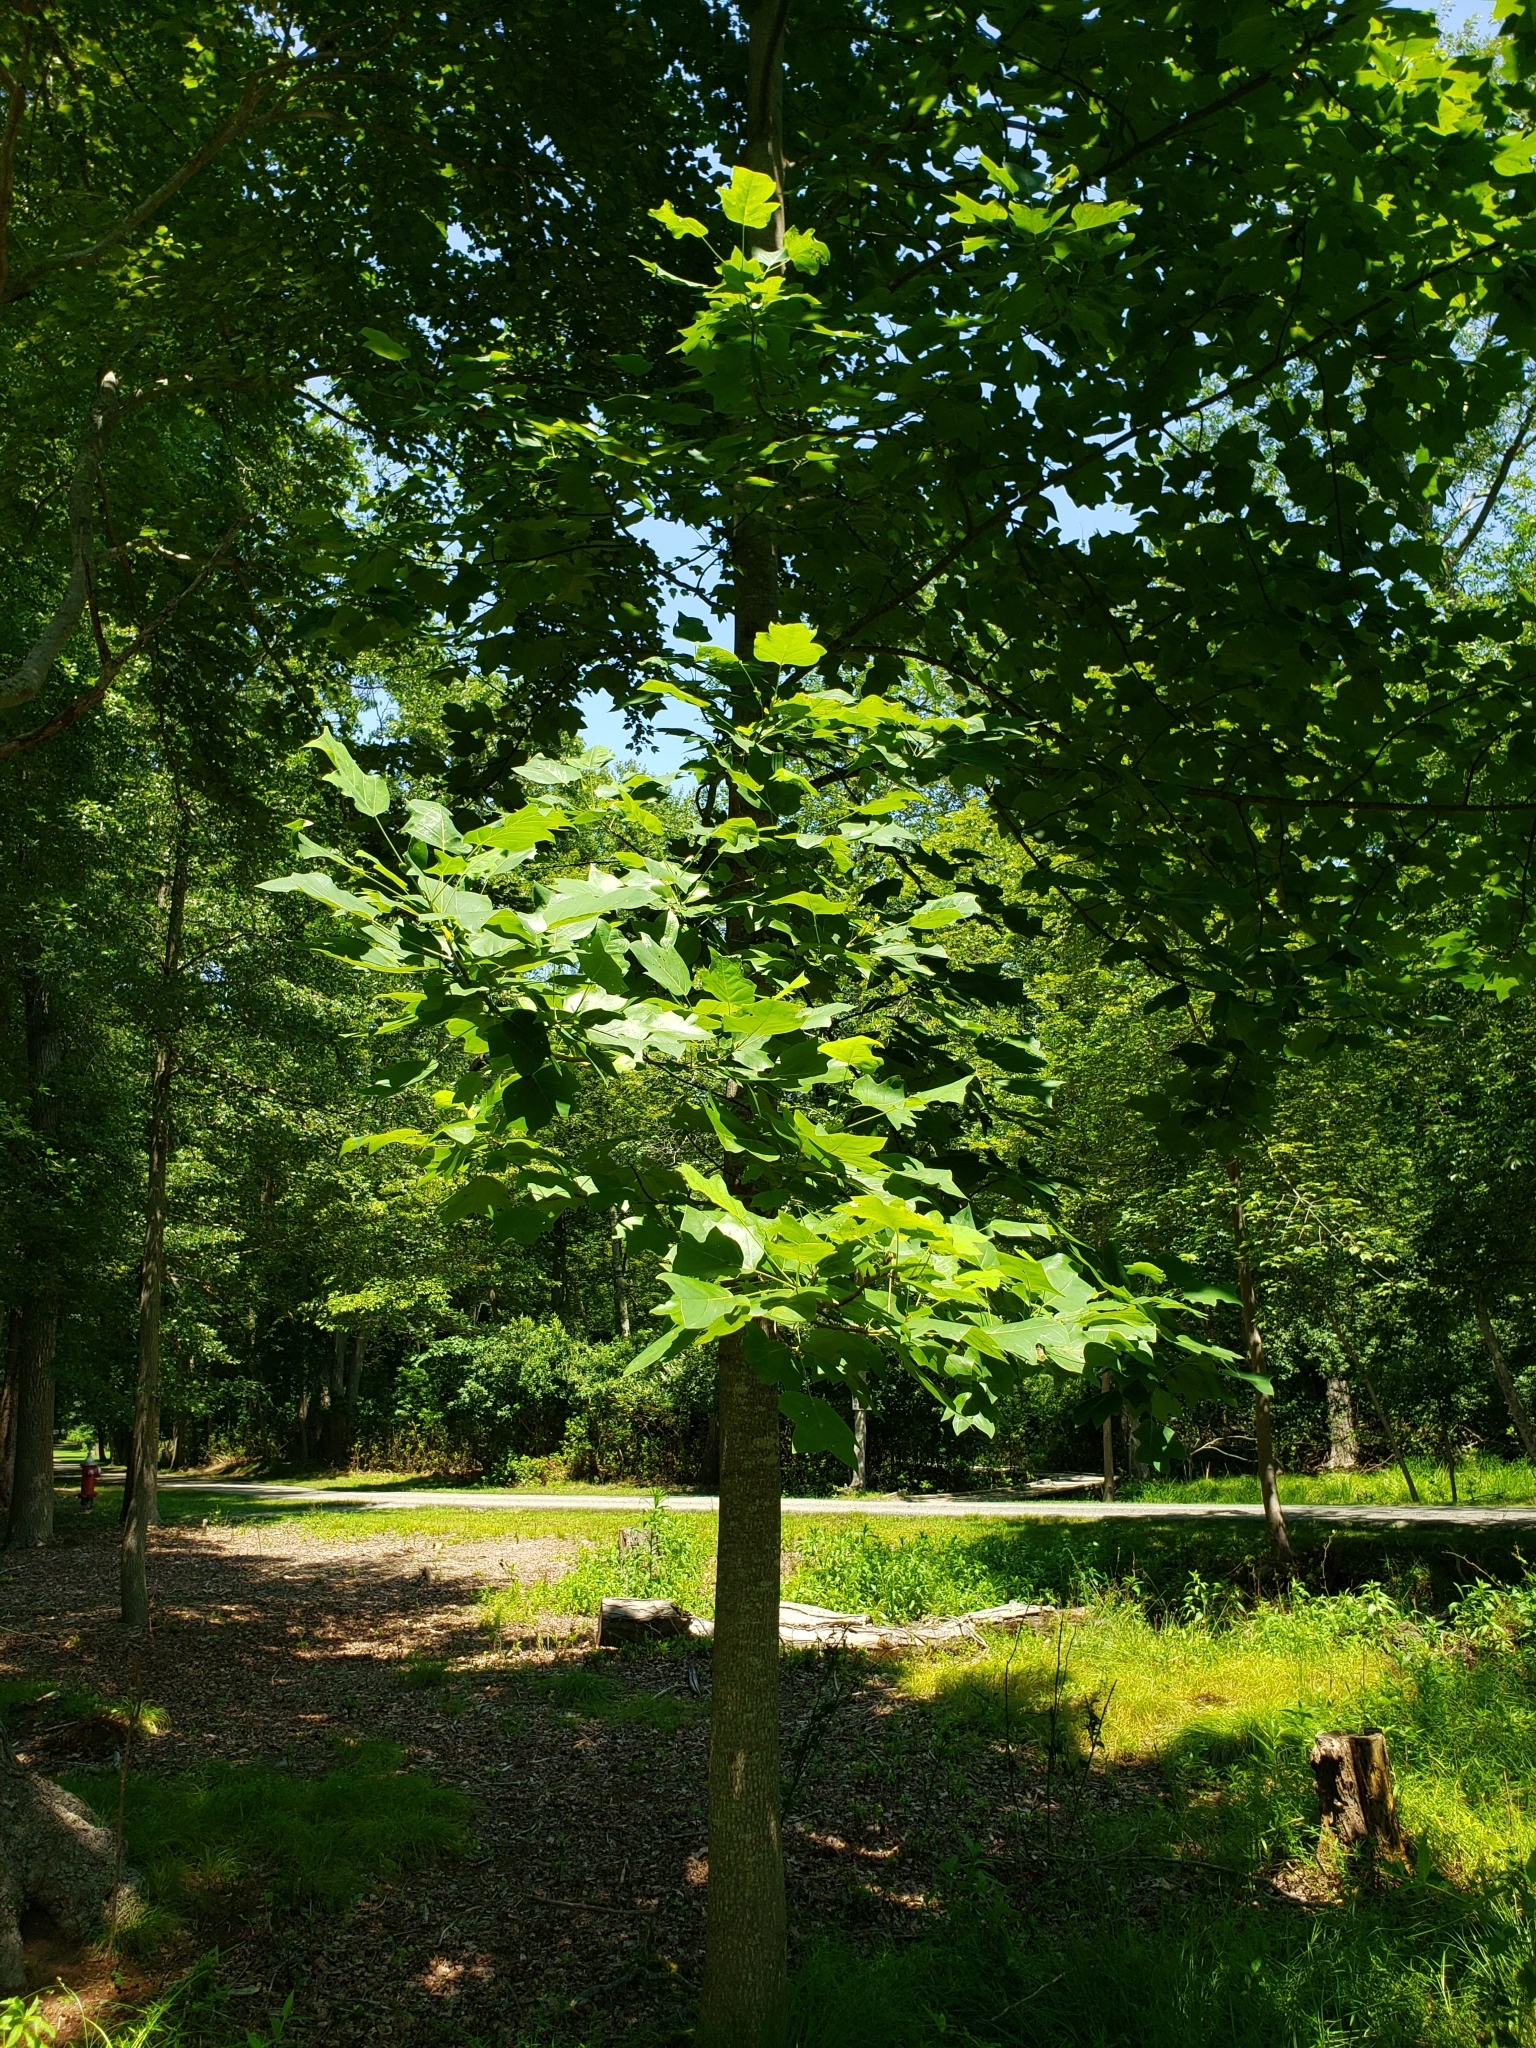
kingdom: Plantae
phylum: Tracheophyta
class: Magnoliopsida
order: Magnoliales
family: Magnoliaceae
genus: Liriodendron
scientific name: Liriodendron tulipifera
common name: Tulip tree
